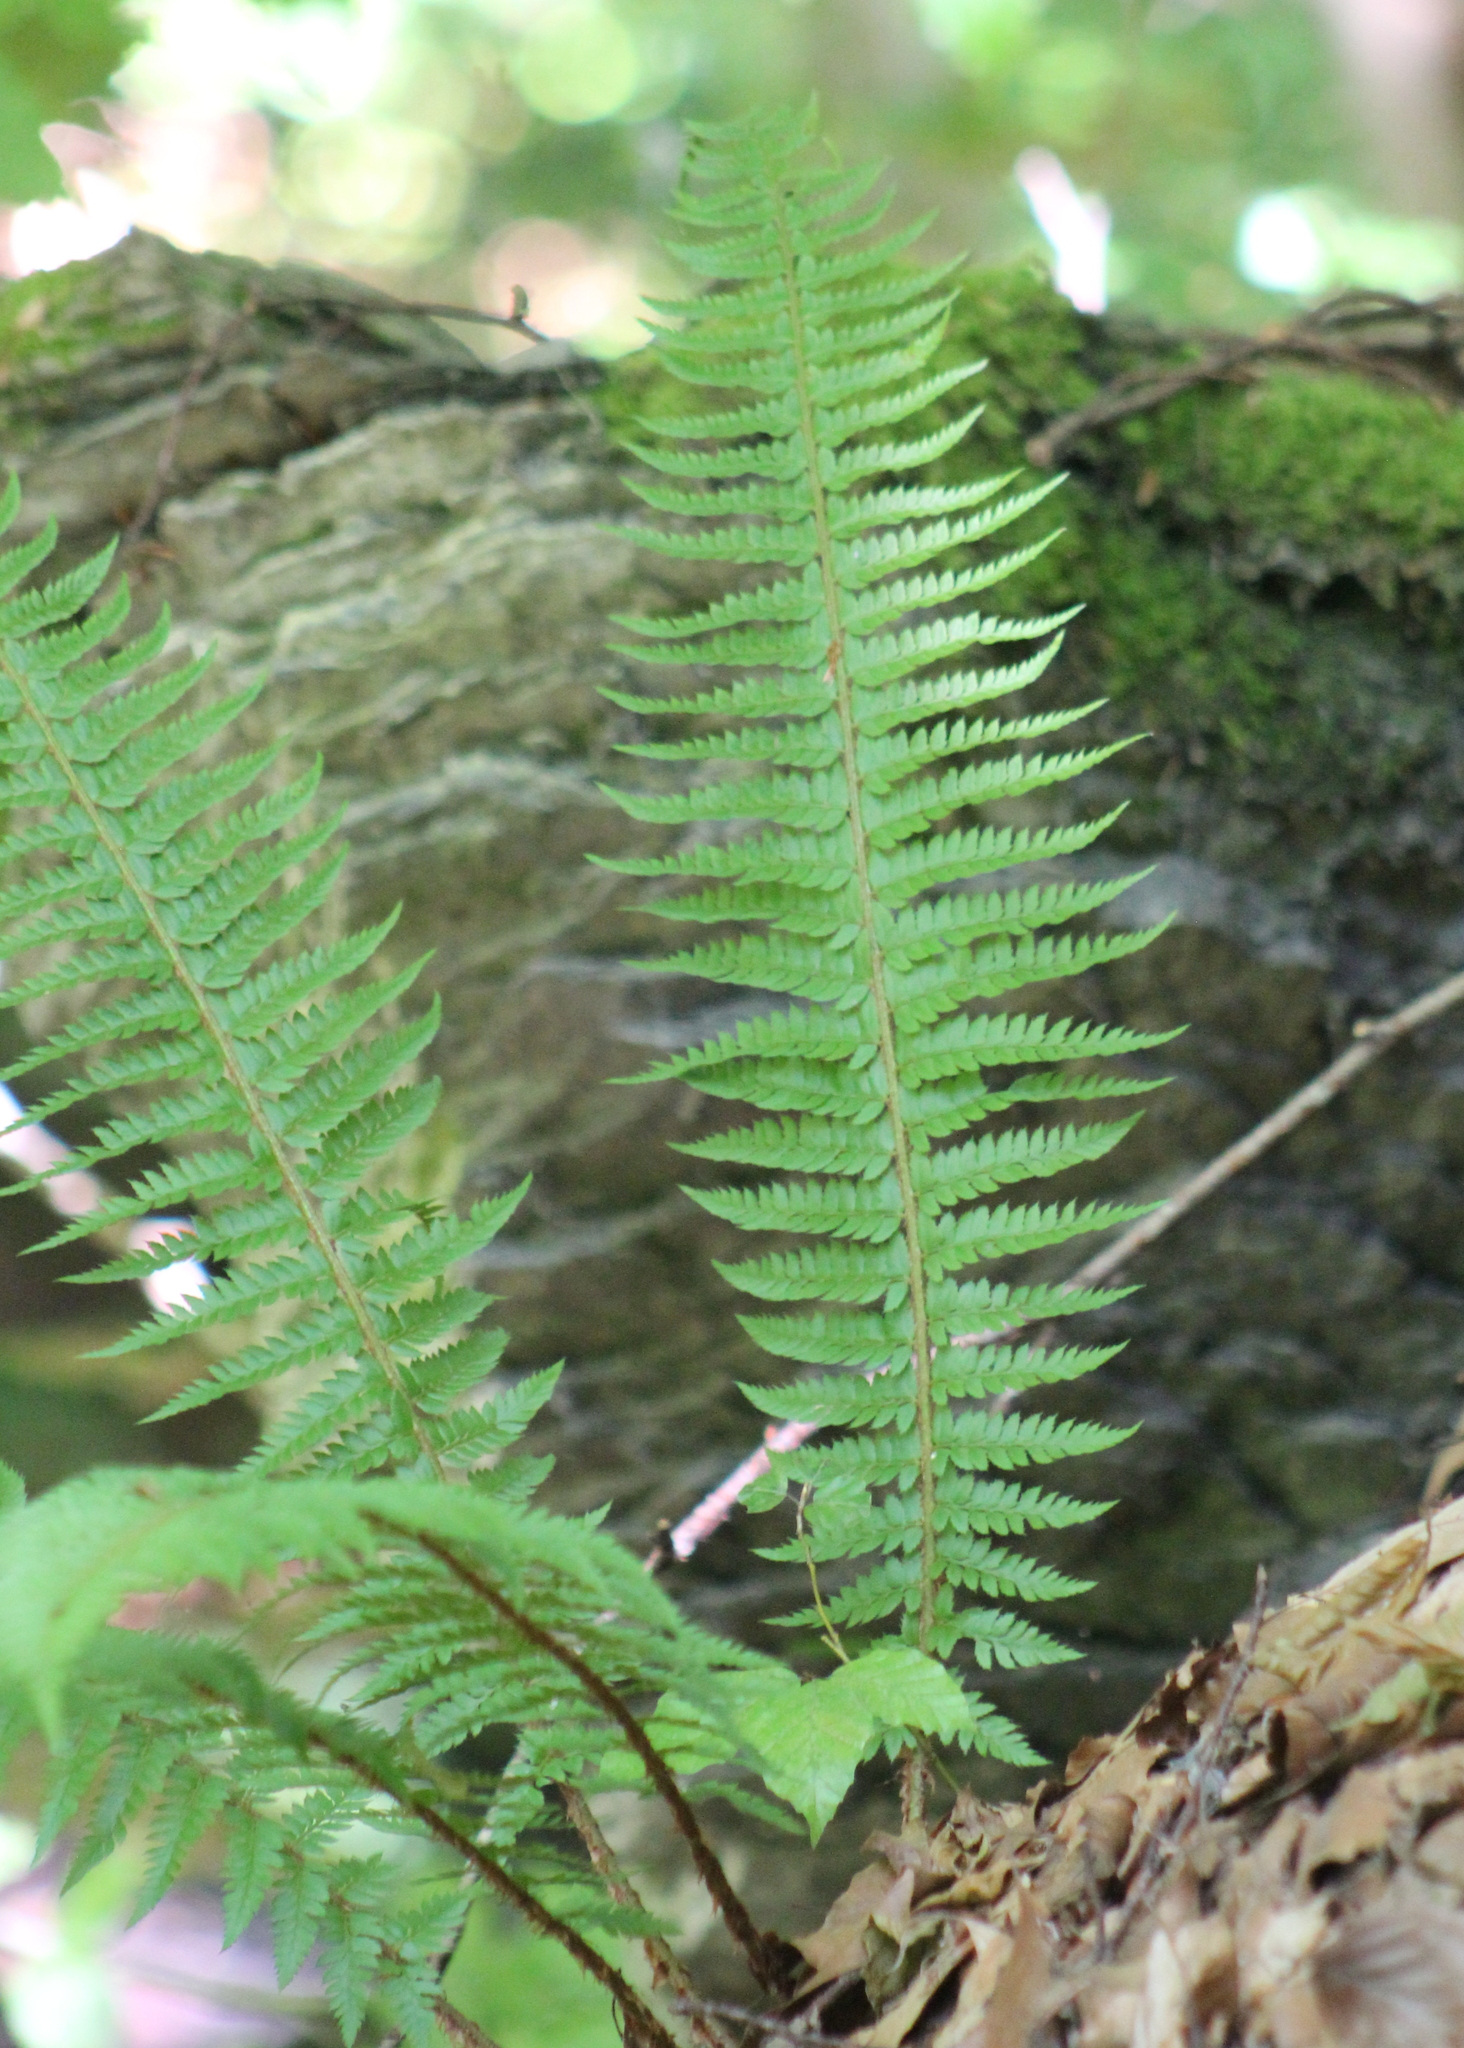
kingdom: Plantae
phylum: Tracheophyta
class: Polypodiopsida
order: Polypodiales
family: Dryopteridaceae
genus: Polystichum
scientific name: Polystichum aculeatum
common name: Hard shield-fern
